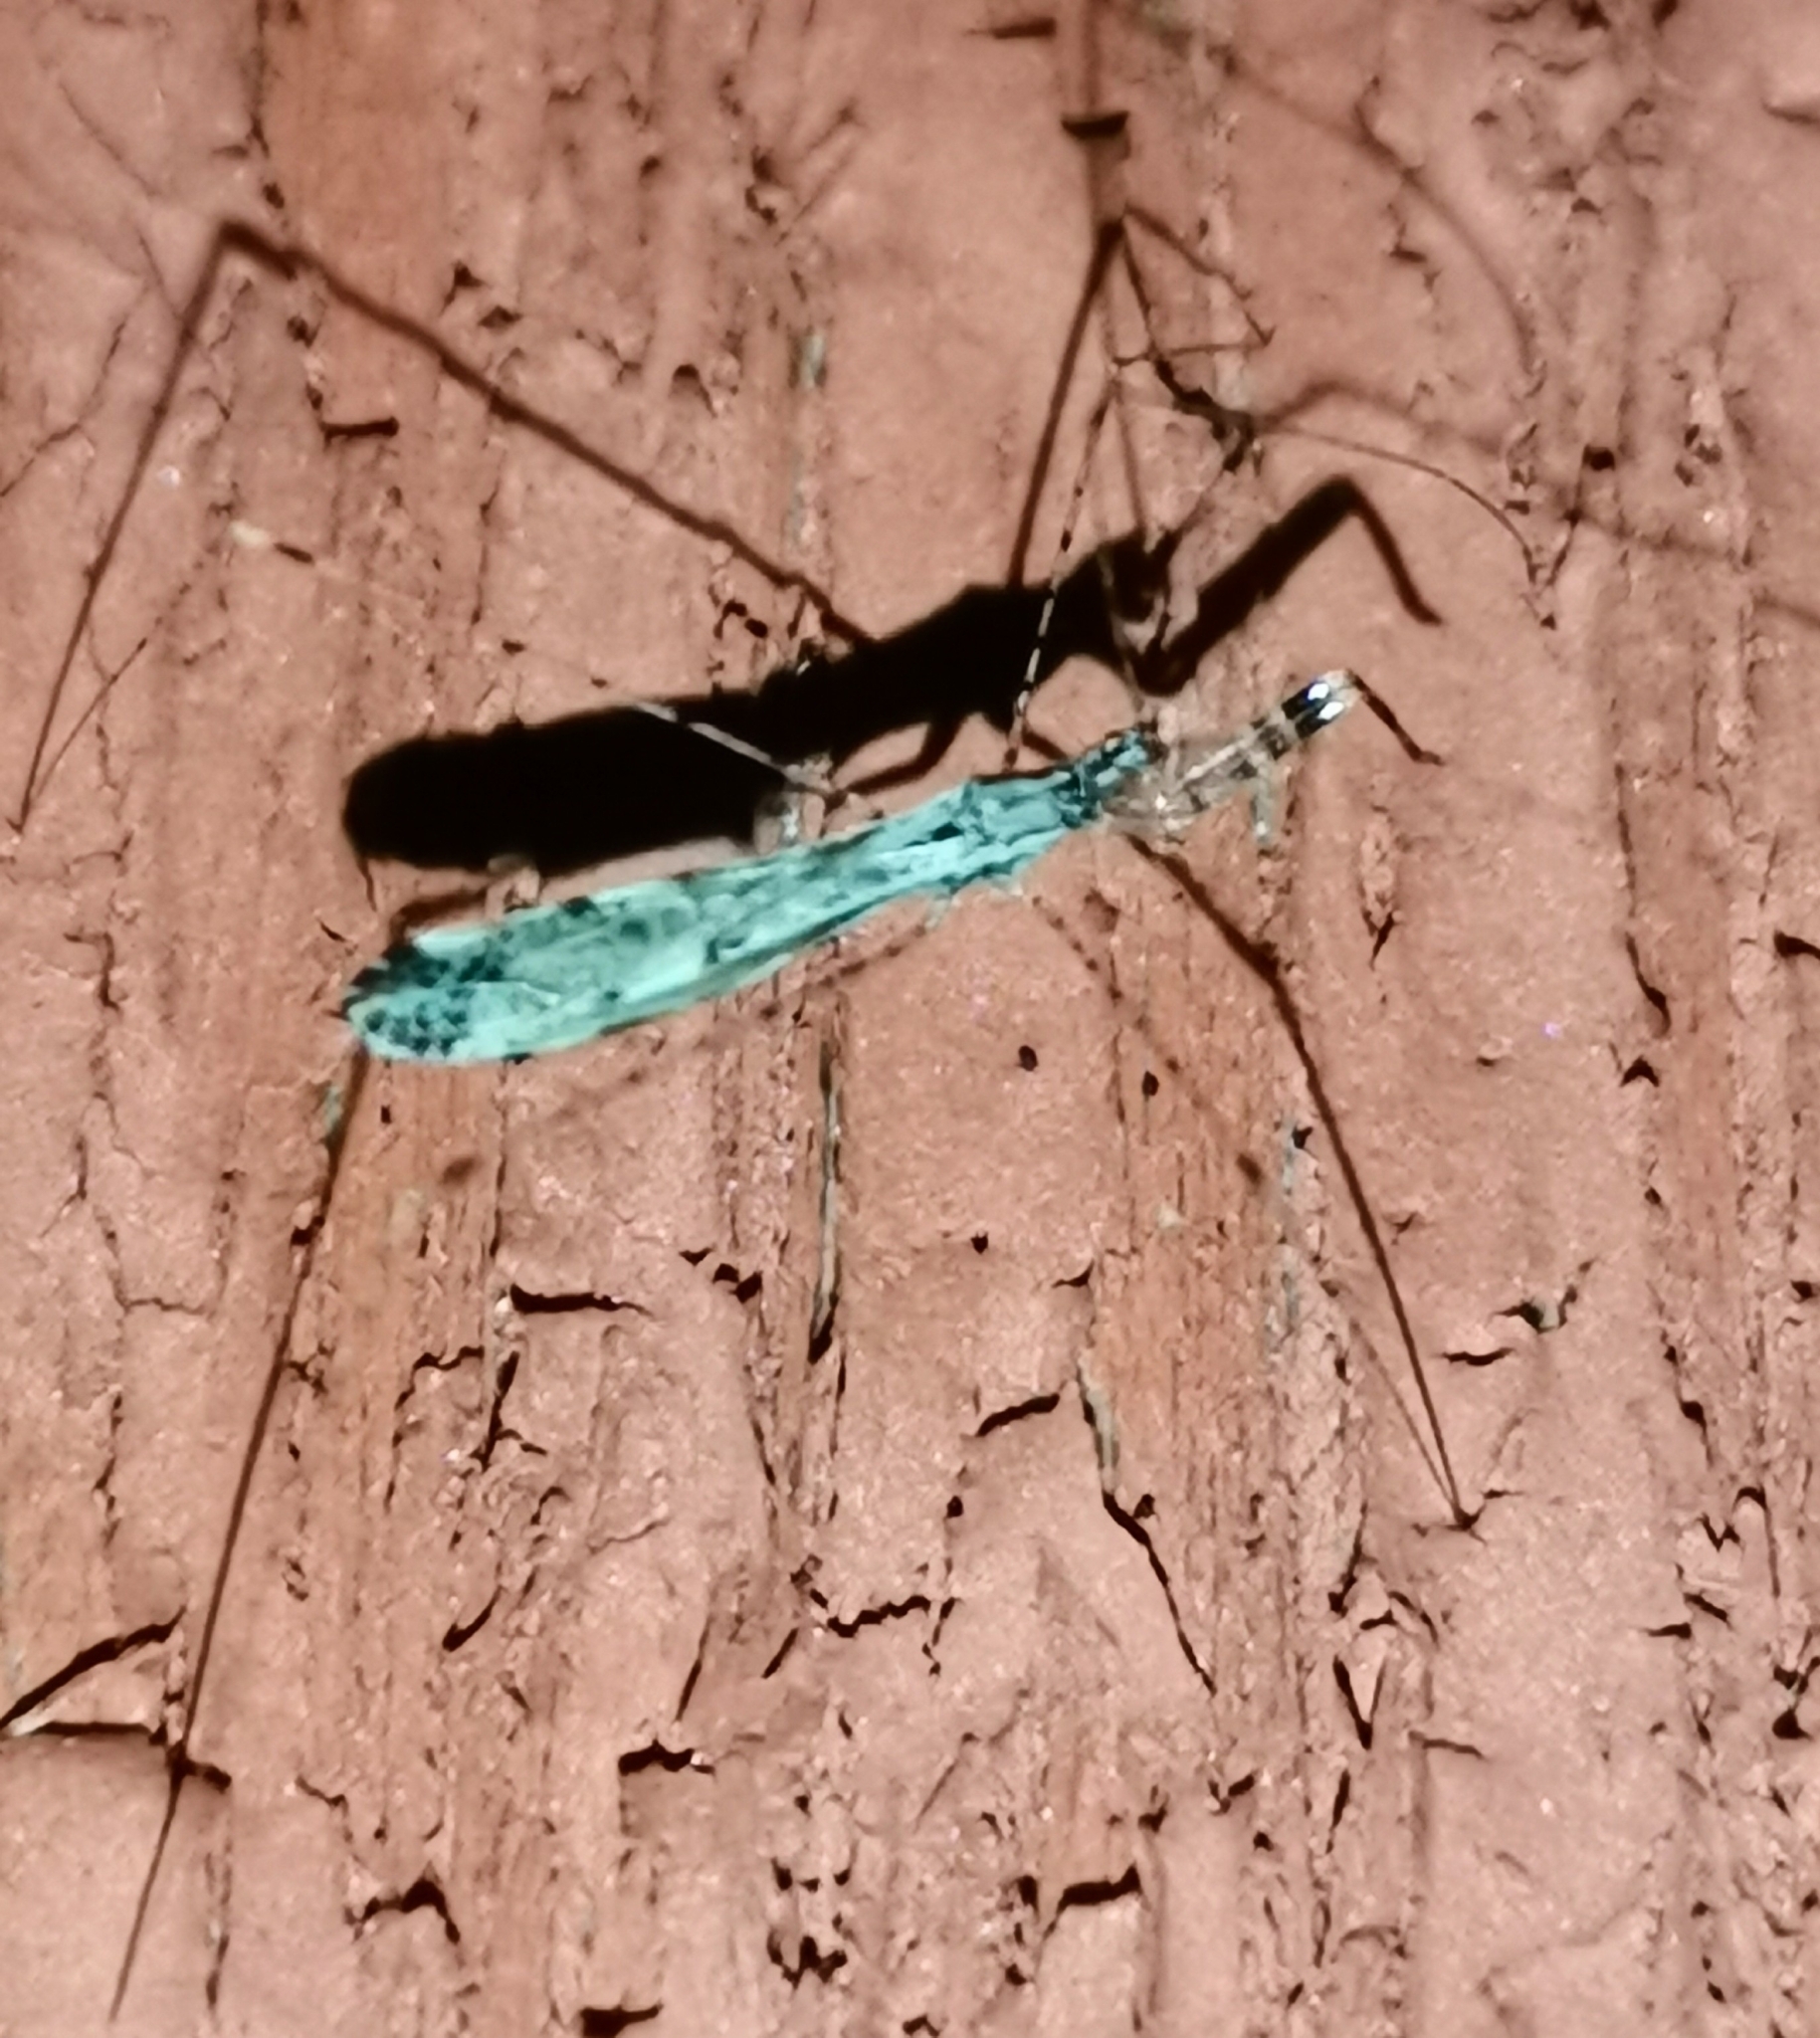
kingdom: Animalia
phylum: Arthropoda
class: Insecta
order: Hemiptera
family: Reduviidae
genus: Empicoris
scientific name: Empicoris vagabundus
